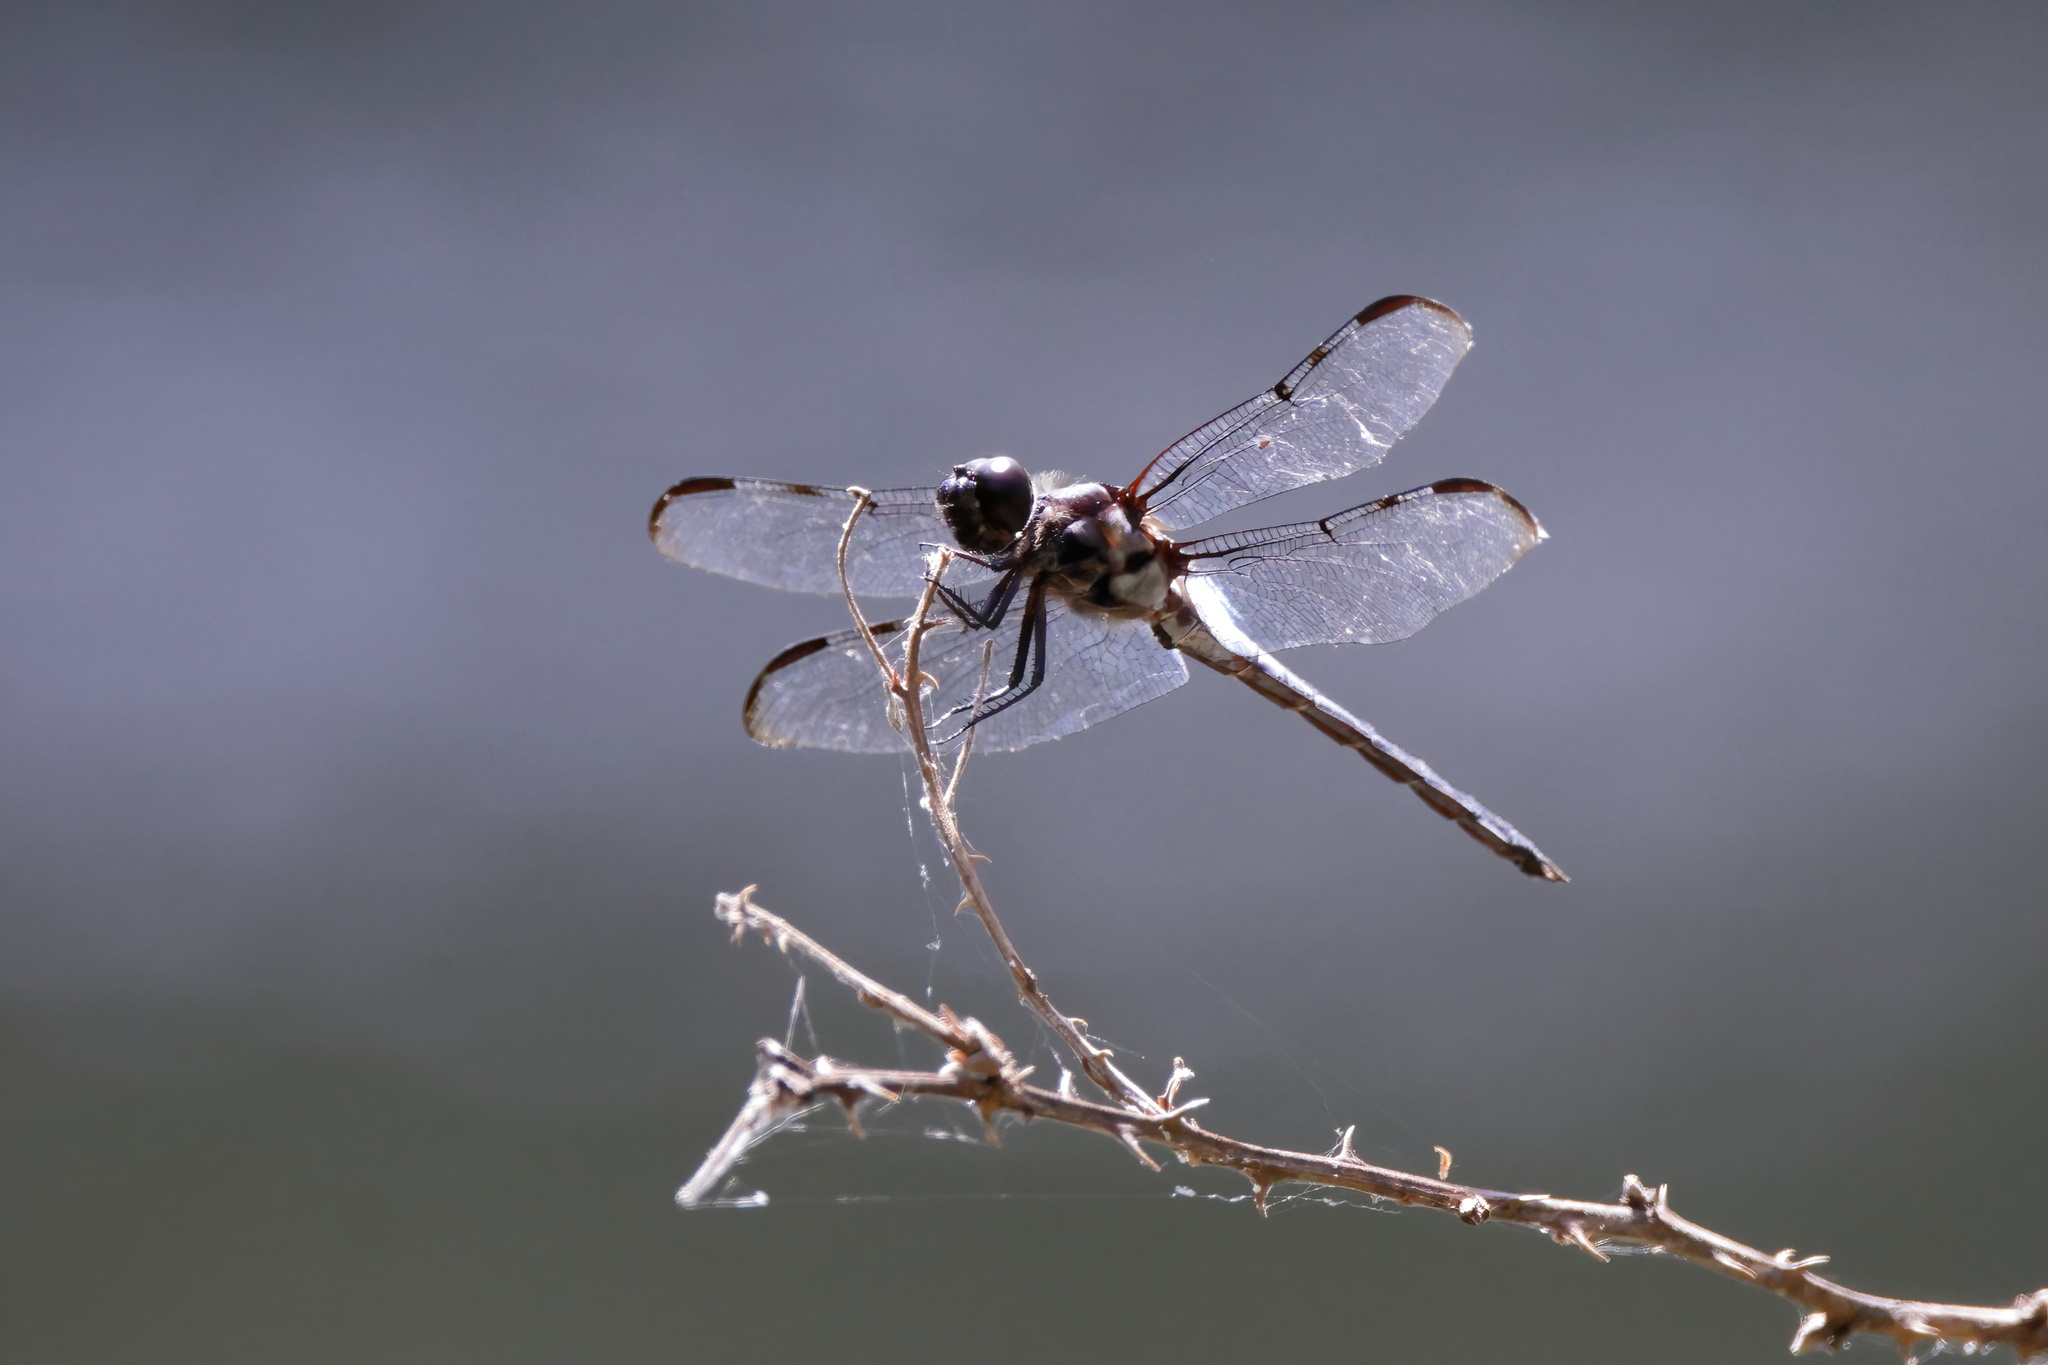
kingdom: Animalia
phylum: Arthropoda
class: Insecta
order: Odonata
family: Libellulidae
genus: Libellula
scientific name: Libellula axilena
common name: Bar-winged skimmer
